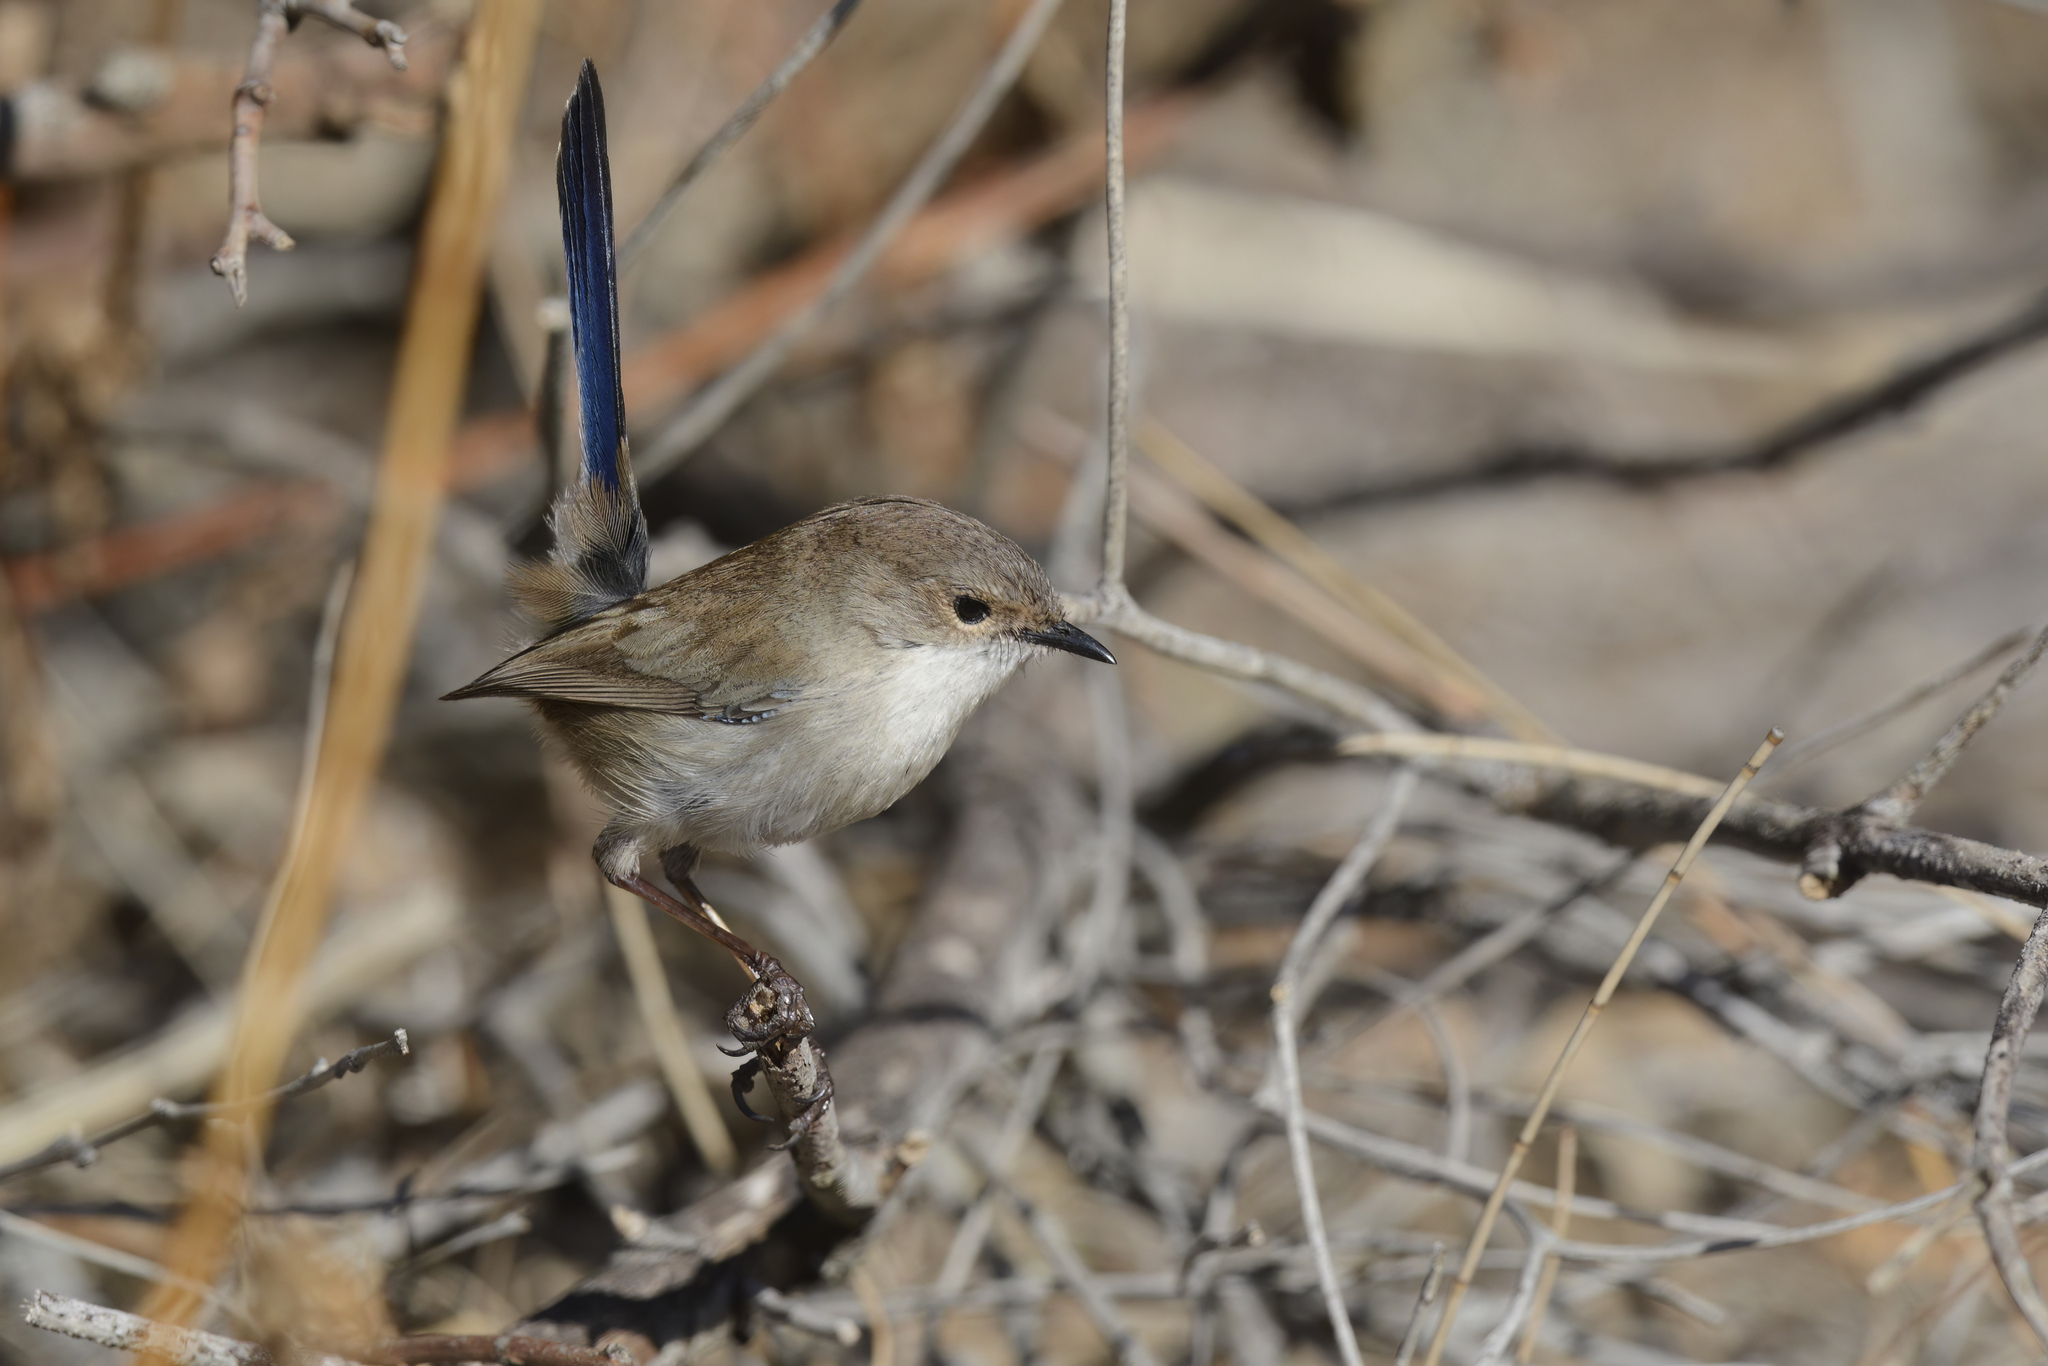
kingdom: Animalia
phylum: Chordata
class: Aves
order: Passeriformes
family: Maluridae
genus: Malurus
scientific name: Malurus cyaneus
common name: Superb fairywren
